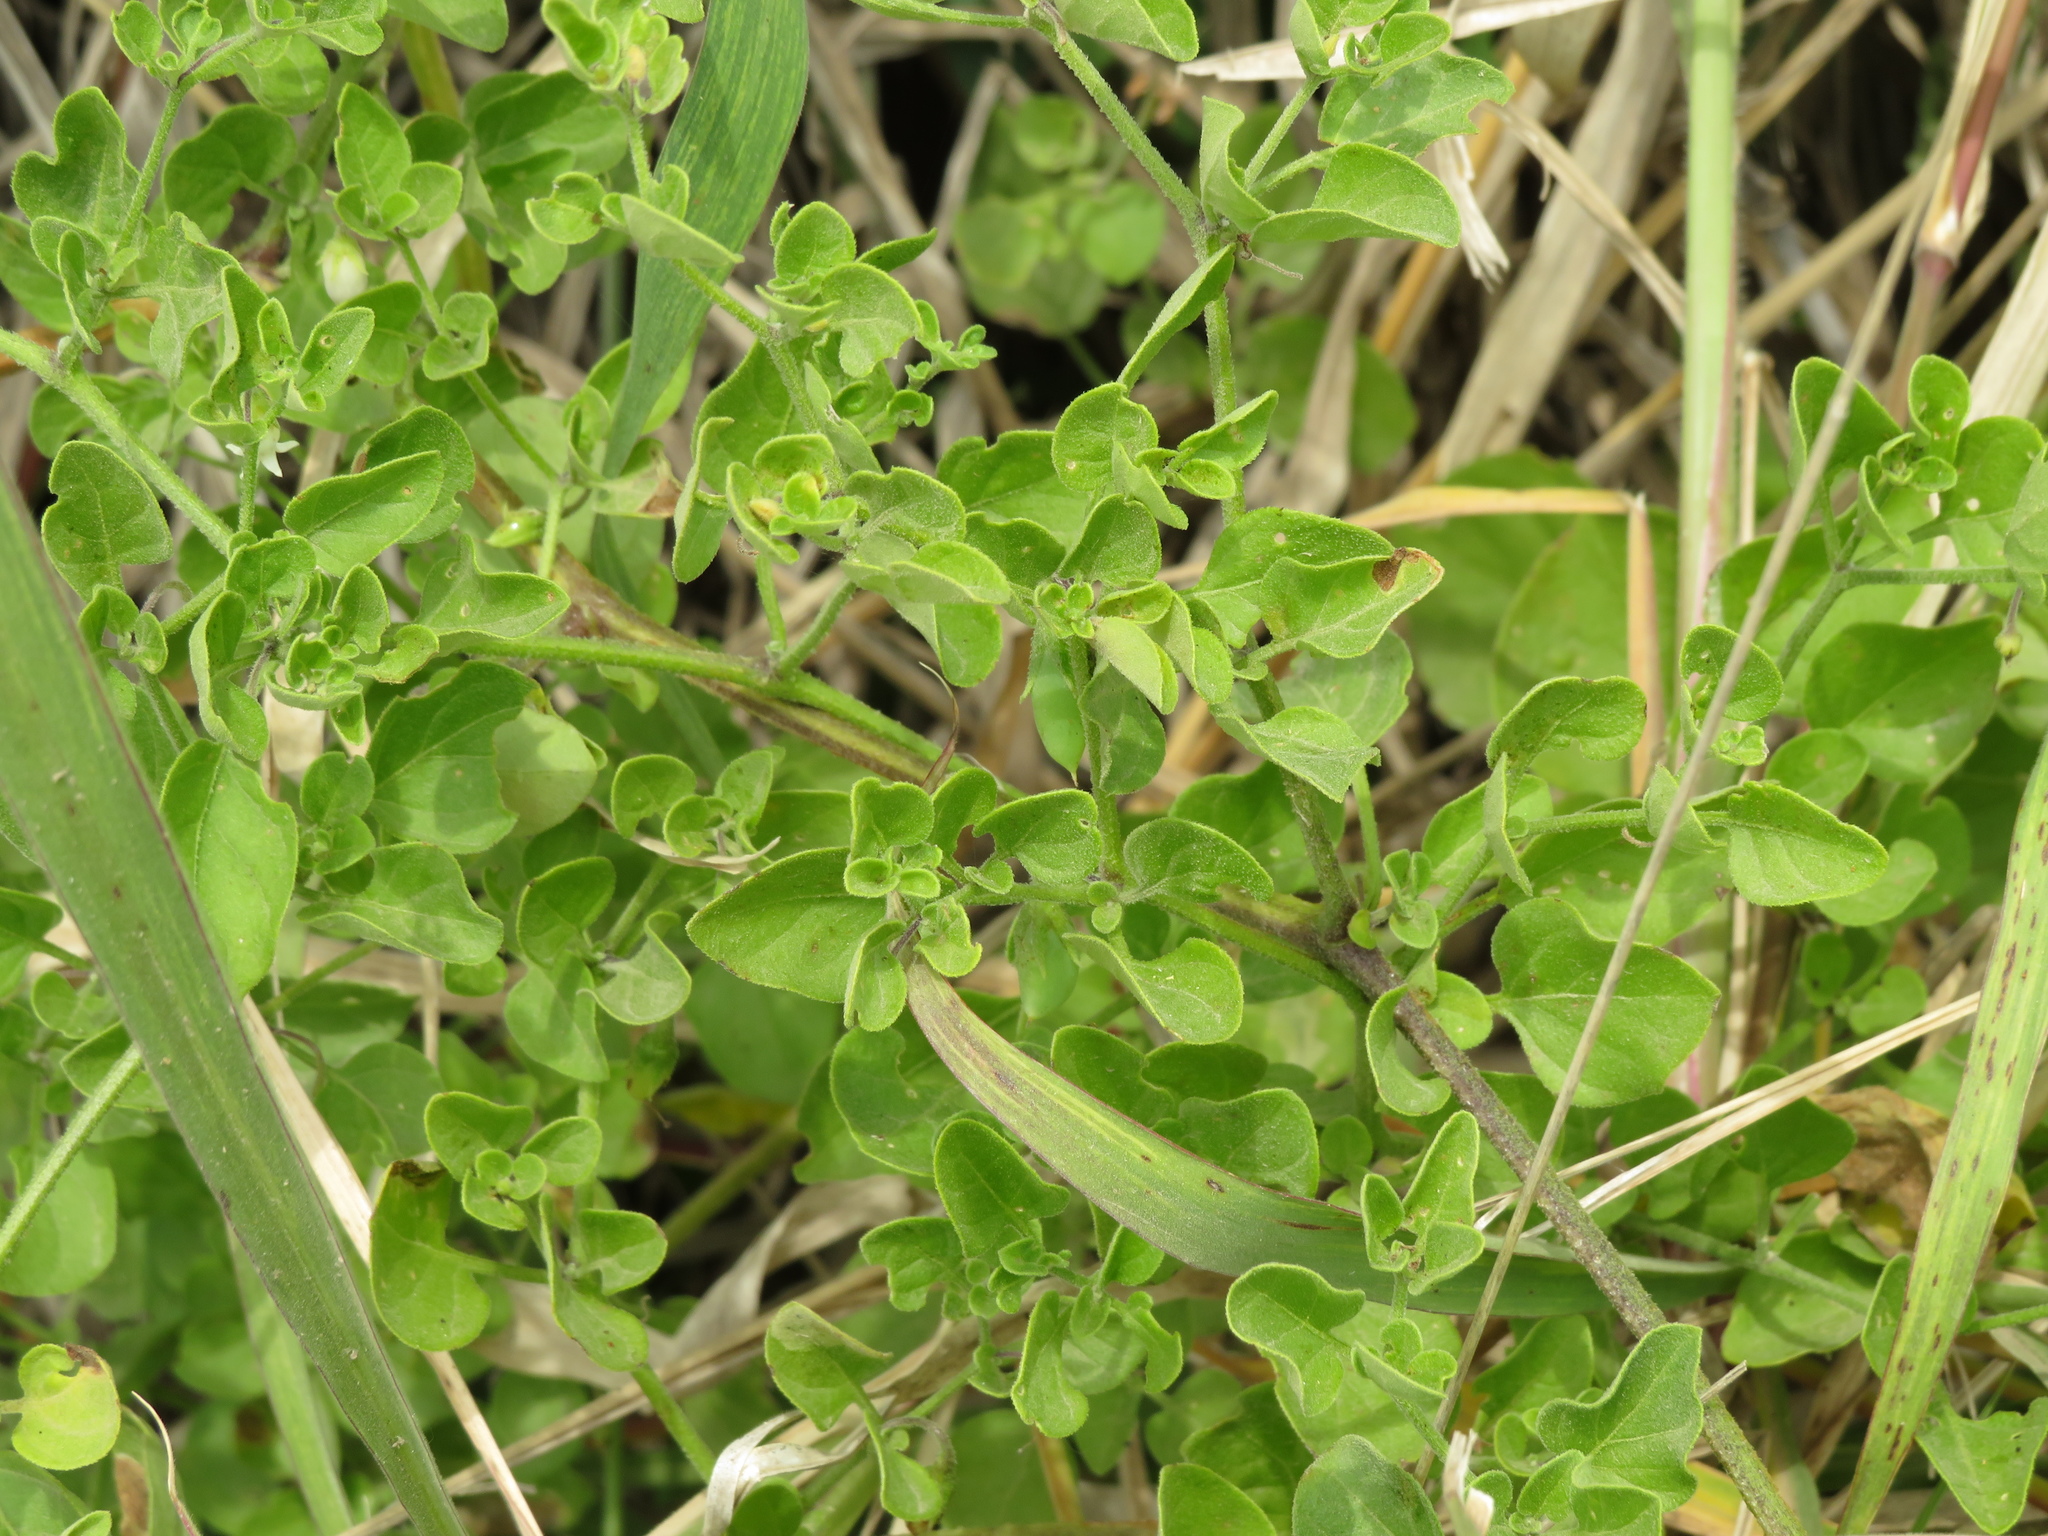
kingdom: Plantae
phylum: Tracheophyta
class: Magnoliopsida
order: Solanales
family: Solanaceae
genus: Salpichroa
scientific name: Salpichroa origanifolia
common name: Lily-of-the-valley-vine
